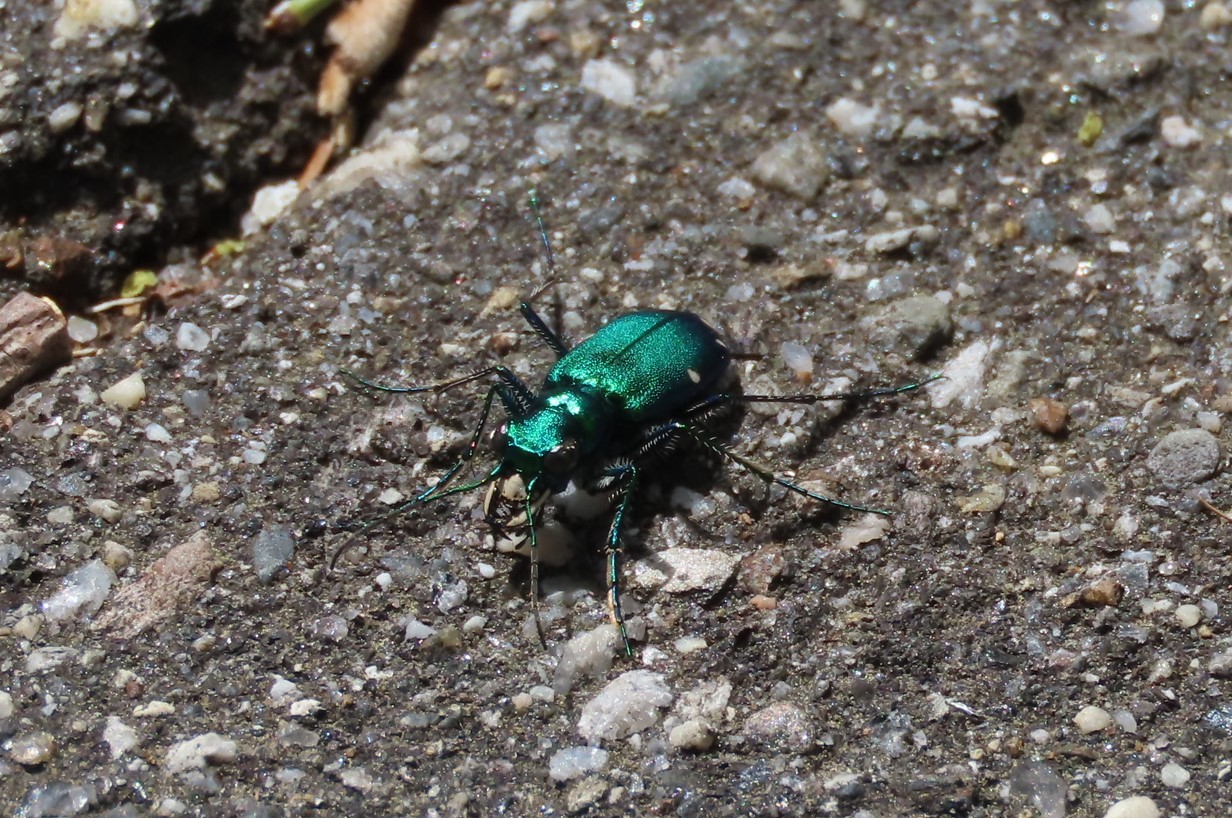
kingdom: Animalia
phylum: Arthropoda
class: Insecta
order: Coleoptera
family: Carabidae
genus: Cicindela
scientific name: Cicindela sexguttata
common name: Six-spotted tiger beetle
